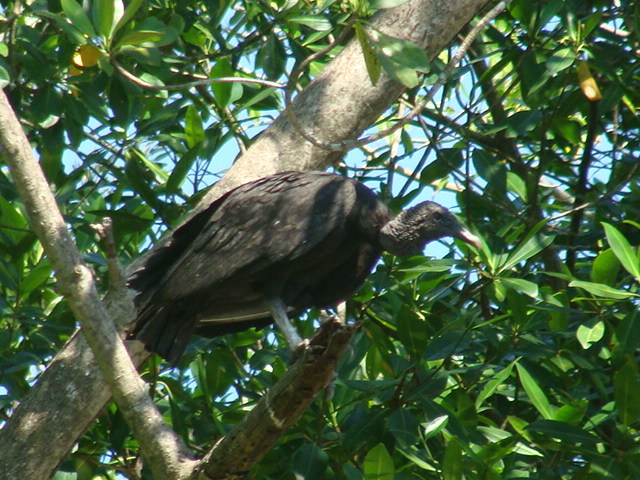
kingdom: Animalia
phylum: Chordata
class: Aves
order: Accipitriformes
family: Cathartidae
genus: Coragyps
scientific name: Coragyps atratus
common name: Black vulture
